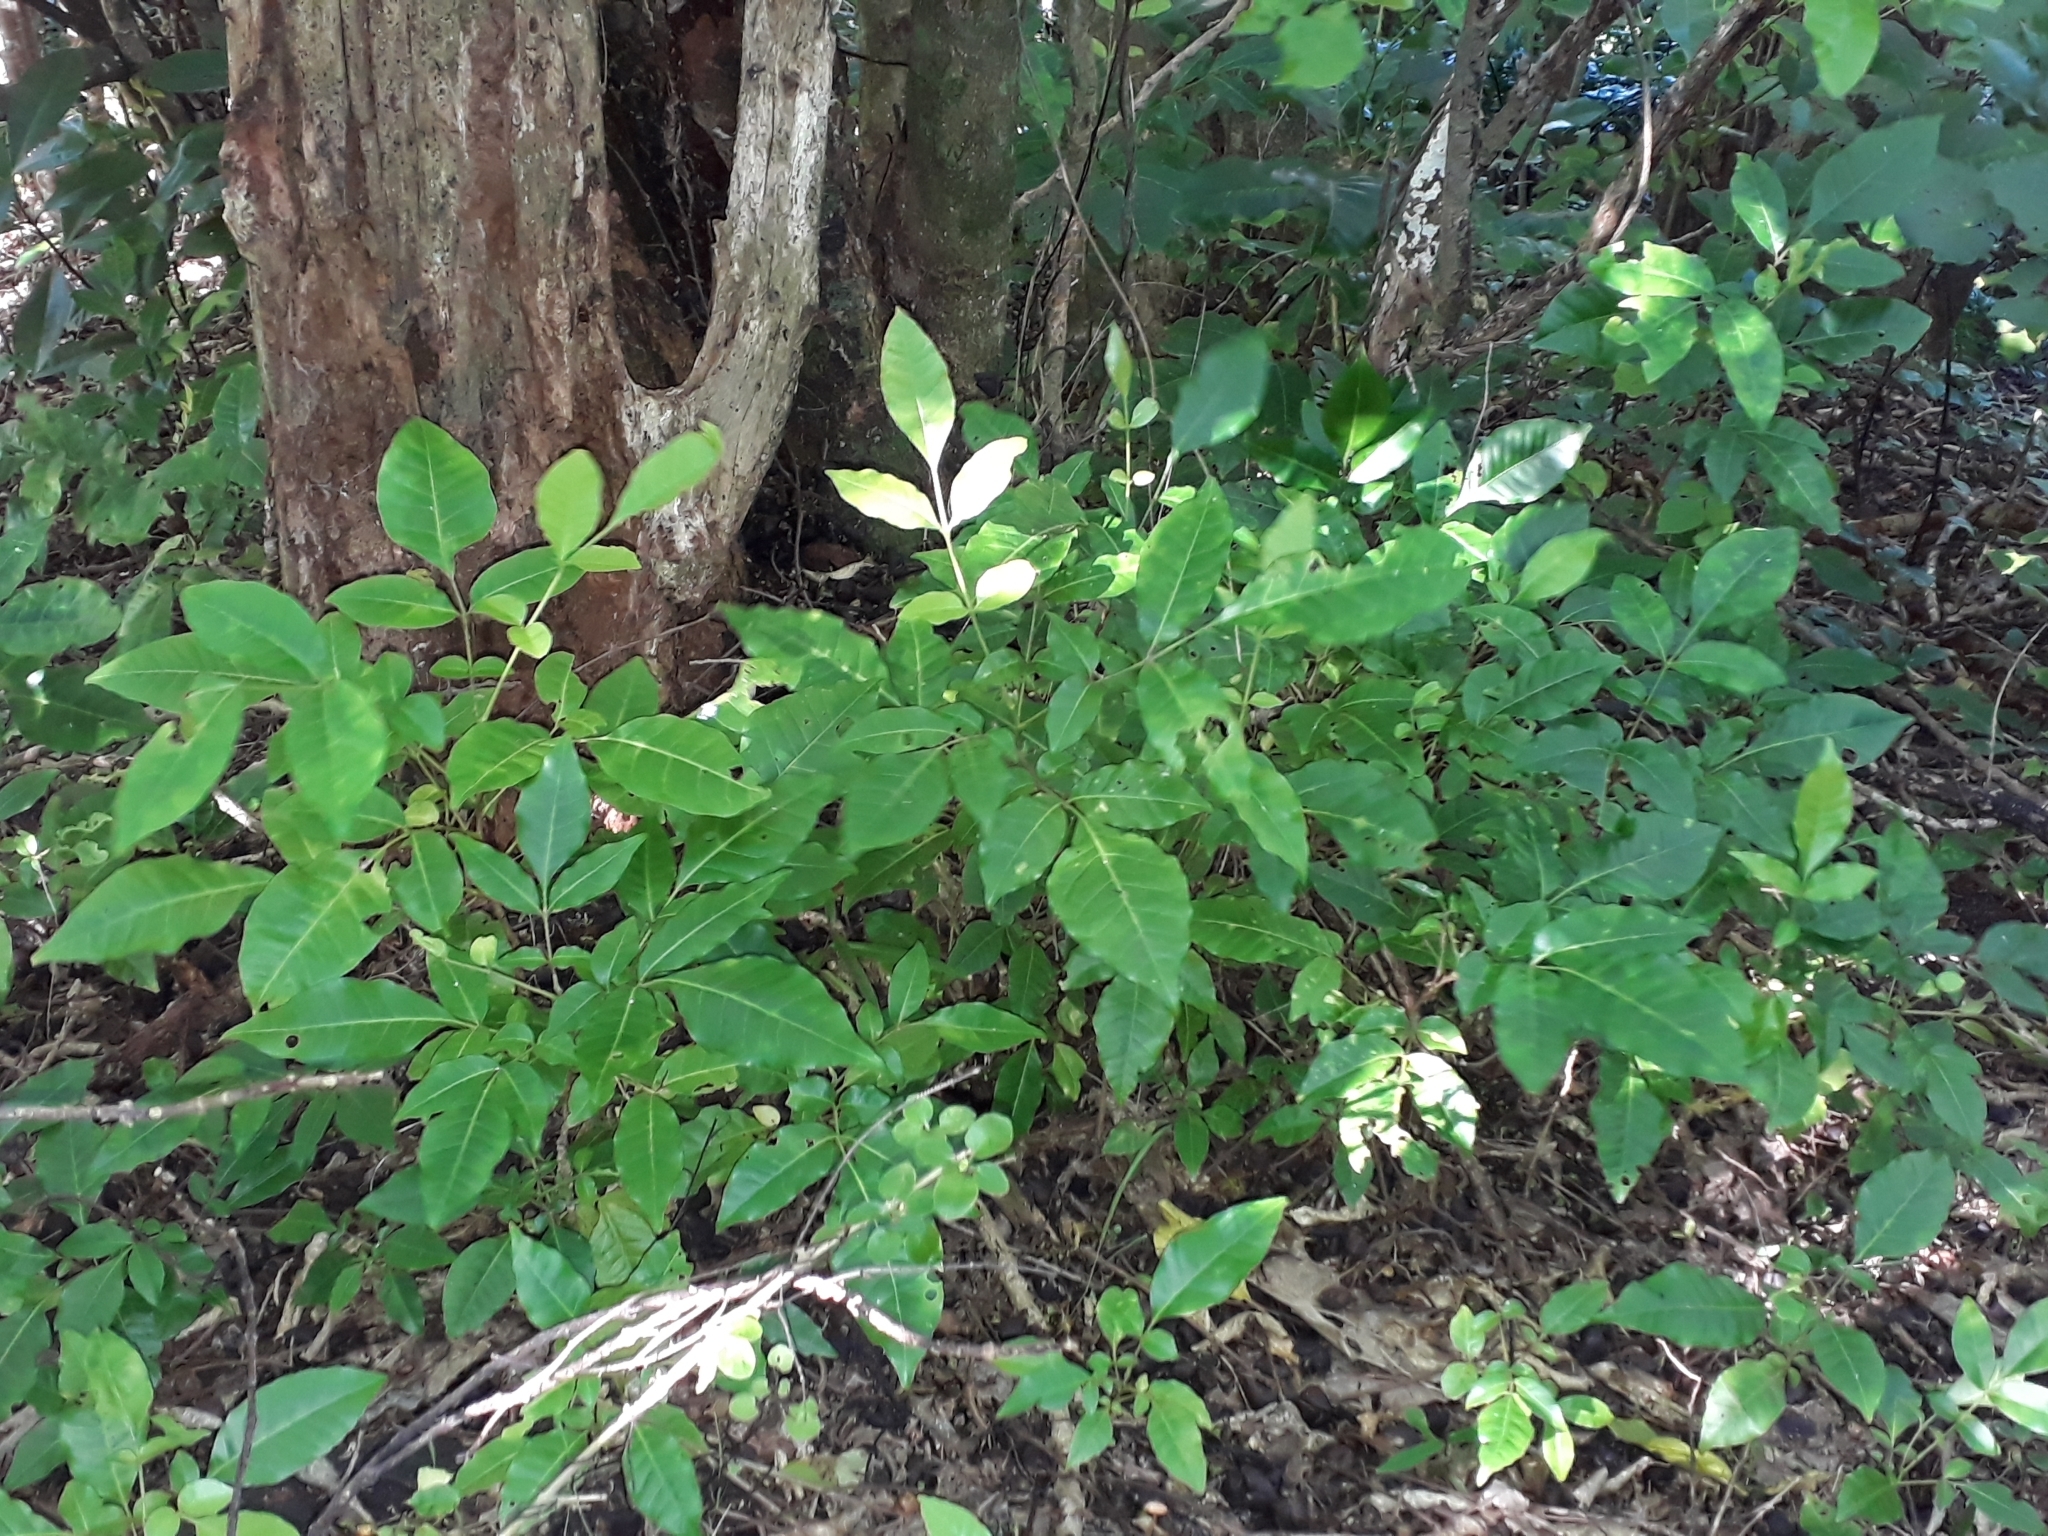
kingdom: Plantae
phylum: Tracheophyta
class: Magnoliopsida
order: Sapindales
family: Meliaceae
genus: Didymocheton
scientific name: Didymocheton spectabilis
